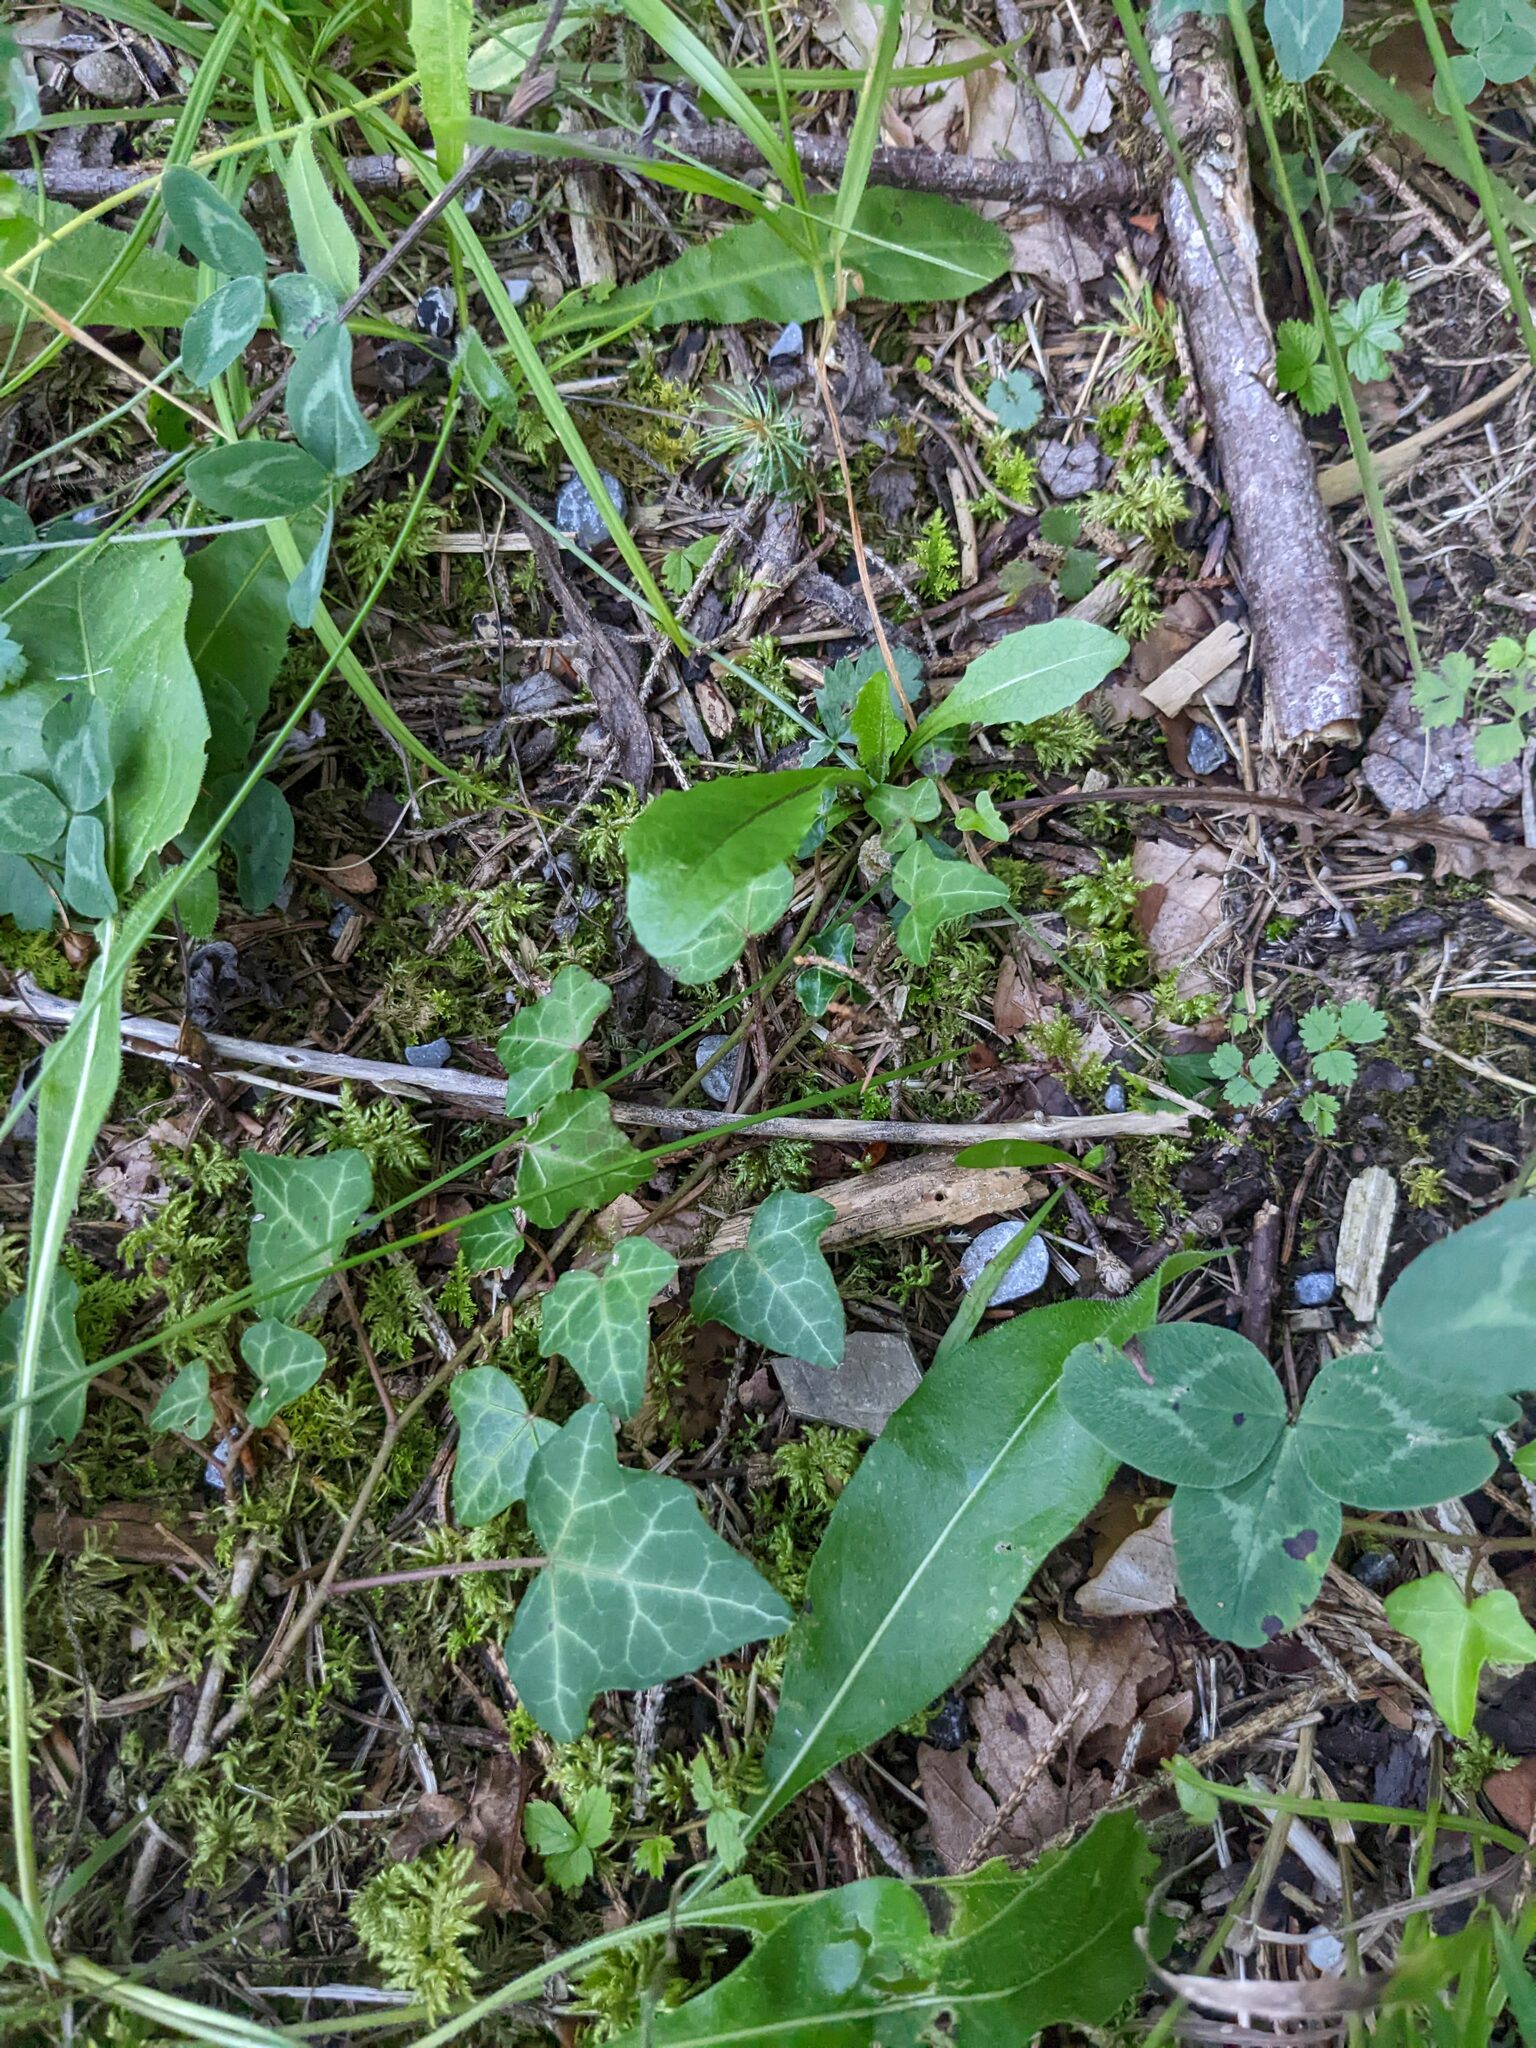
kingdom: Plantae
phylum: Tracheophyta
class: Magnoliopsida
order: Apiales
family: Araliaceae
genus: Hedera
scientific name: Hedera helix
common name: Ivy
